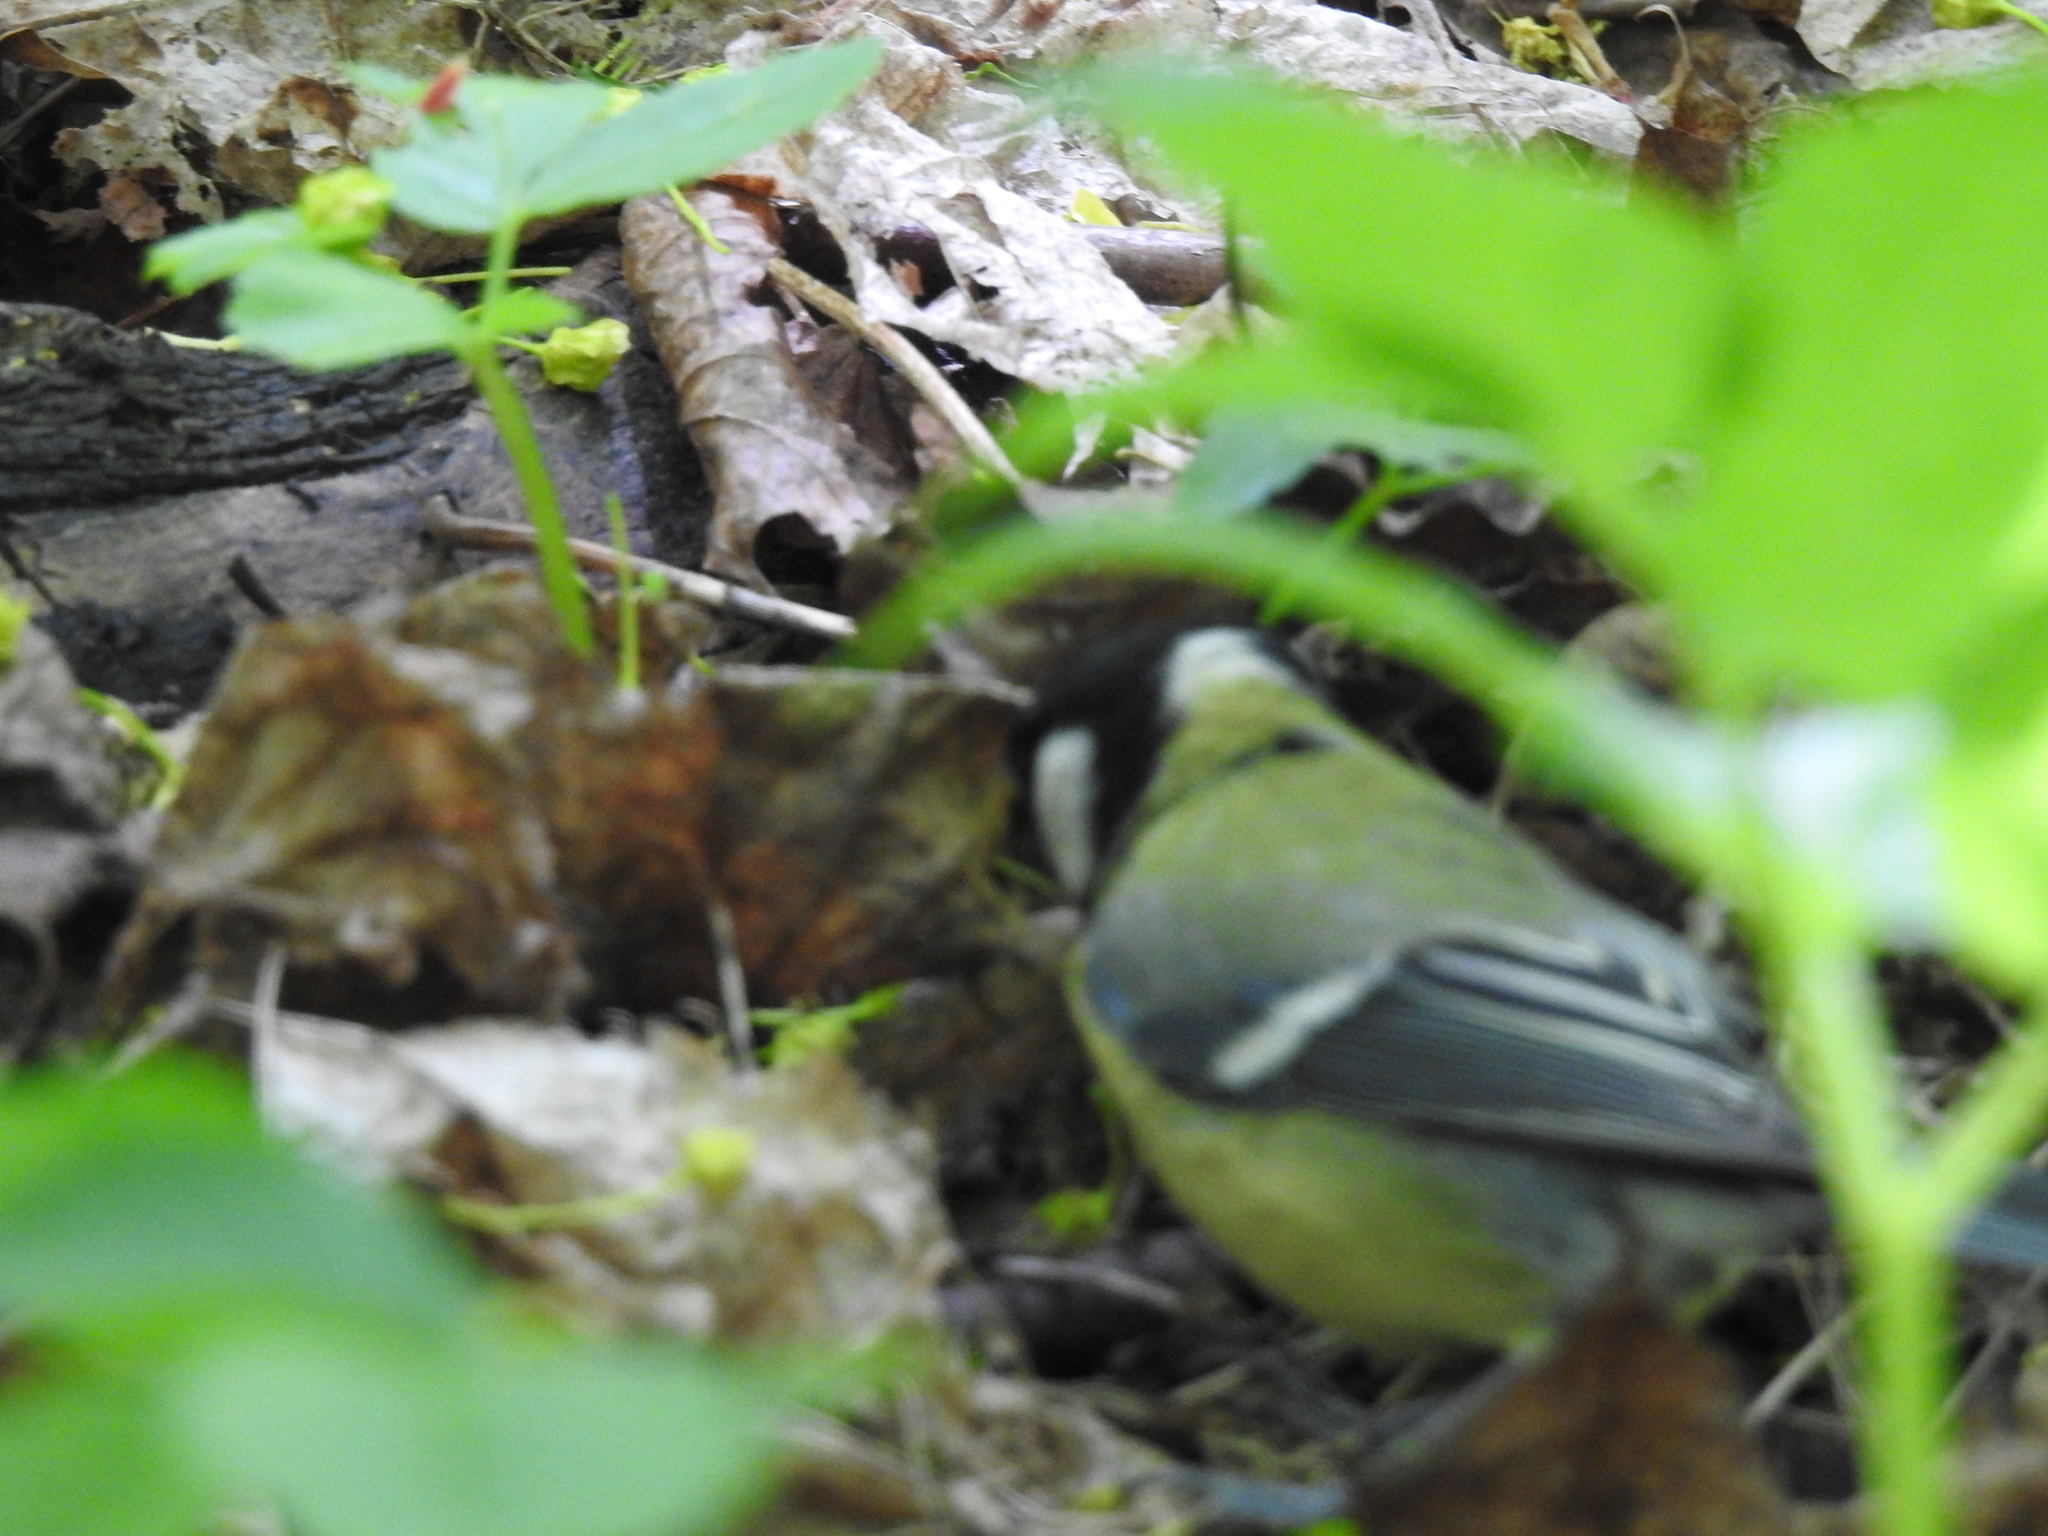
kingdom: Animalia
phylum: Chordata
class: Aves
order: Passeriformes
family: Paridae
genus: Parus
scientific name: Parus major
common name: Great tit
